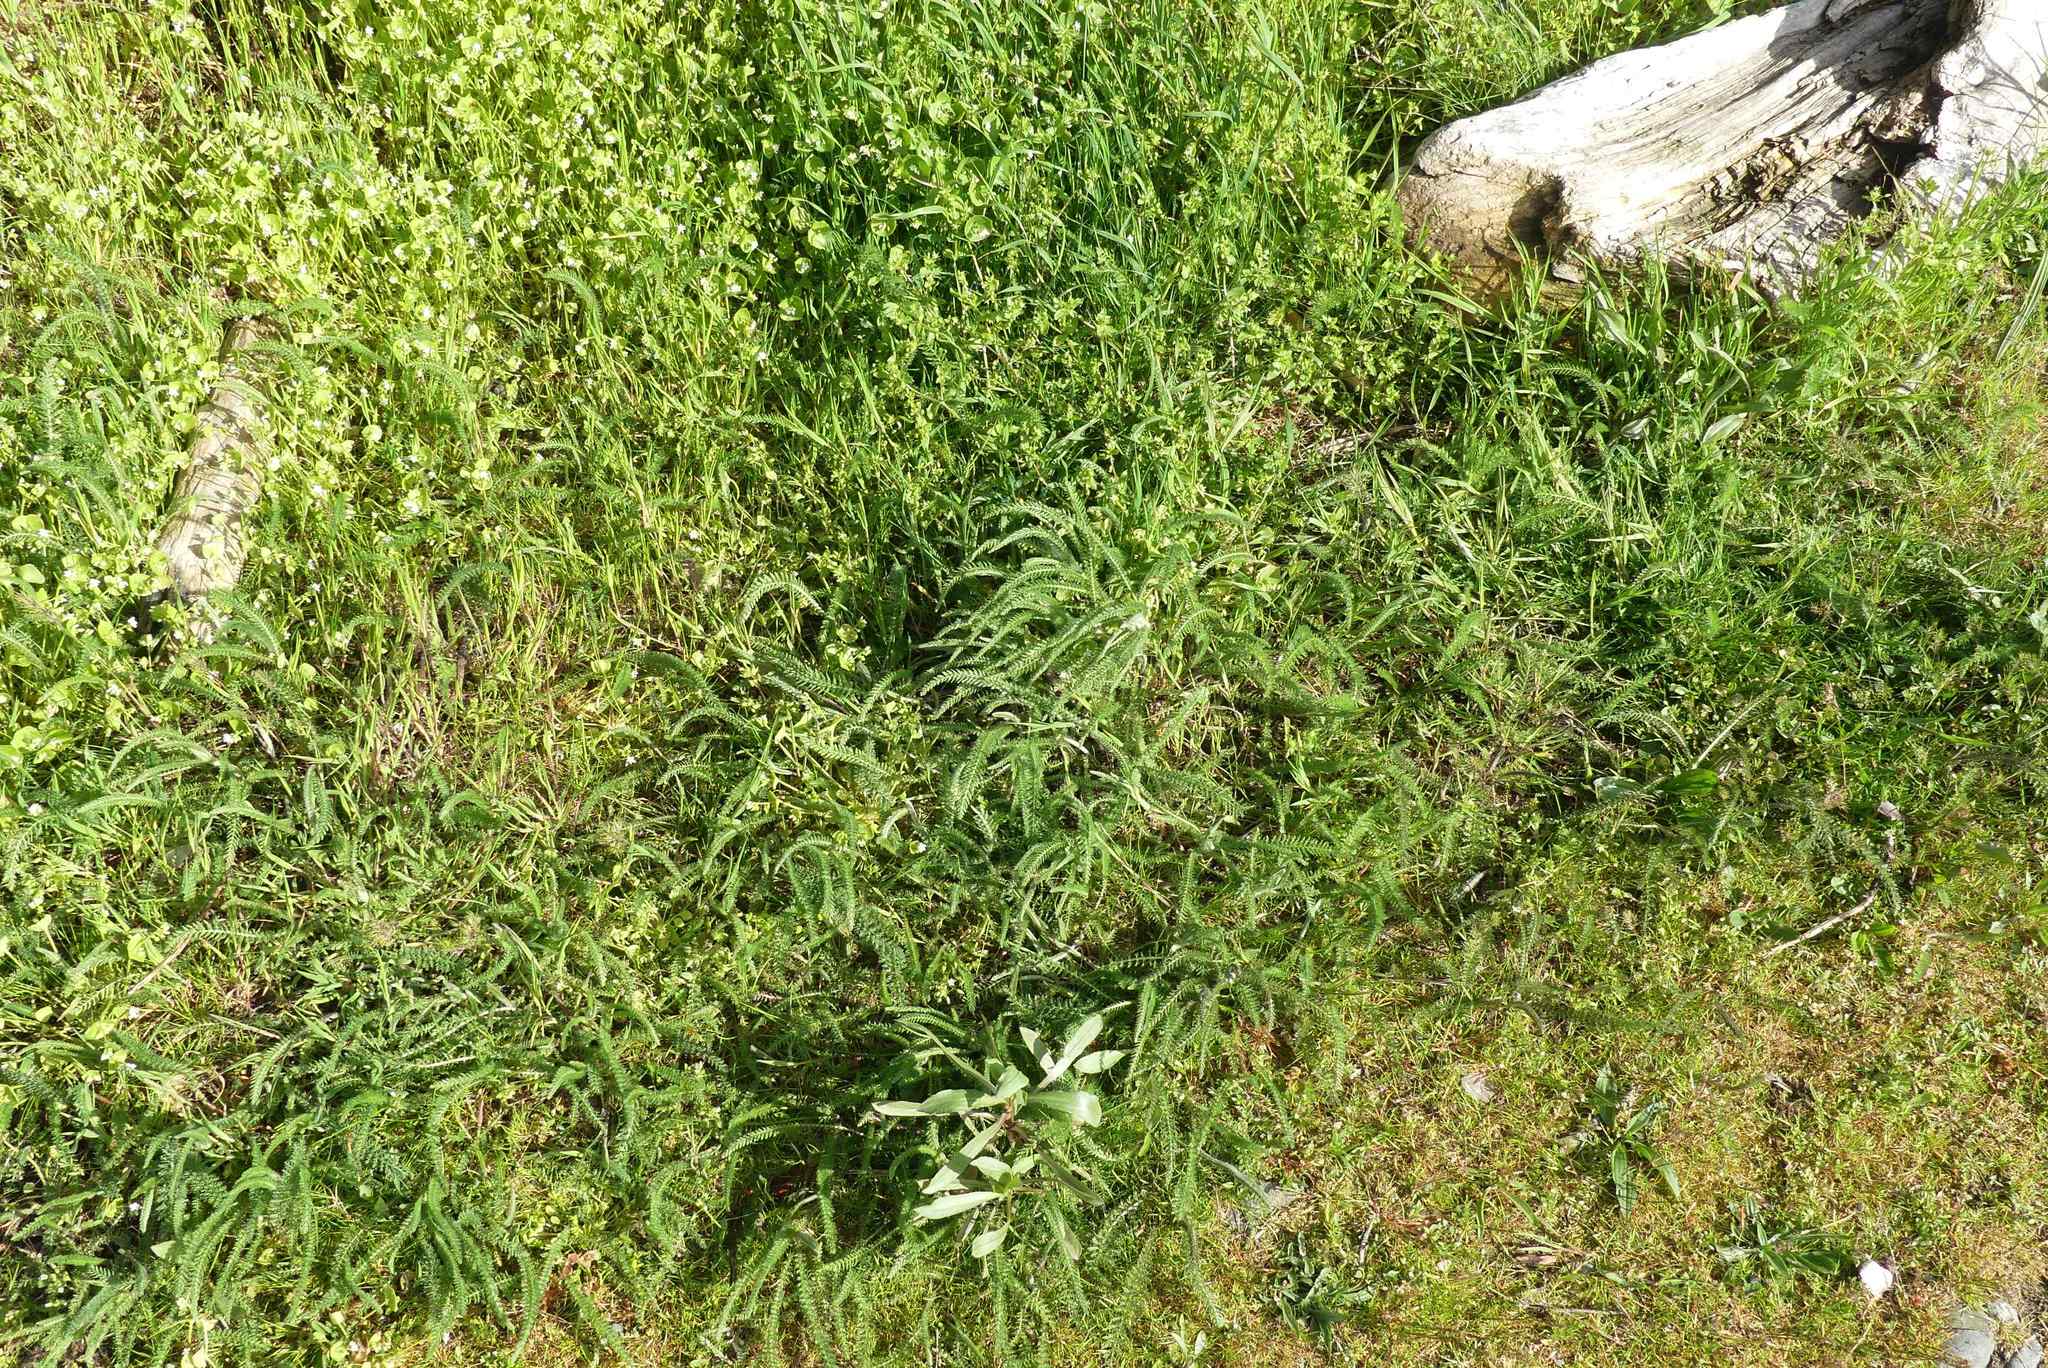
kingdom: Plantae
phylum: Tracheophyta
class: Magnoliopsida
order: Asterales
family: Asteraceae
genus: Achillea
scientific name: Achillea millefolium
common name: Yarrow
